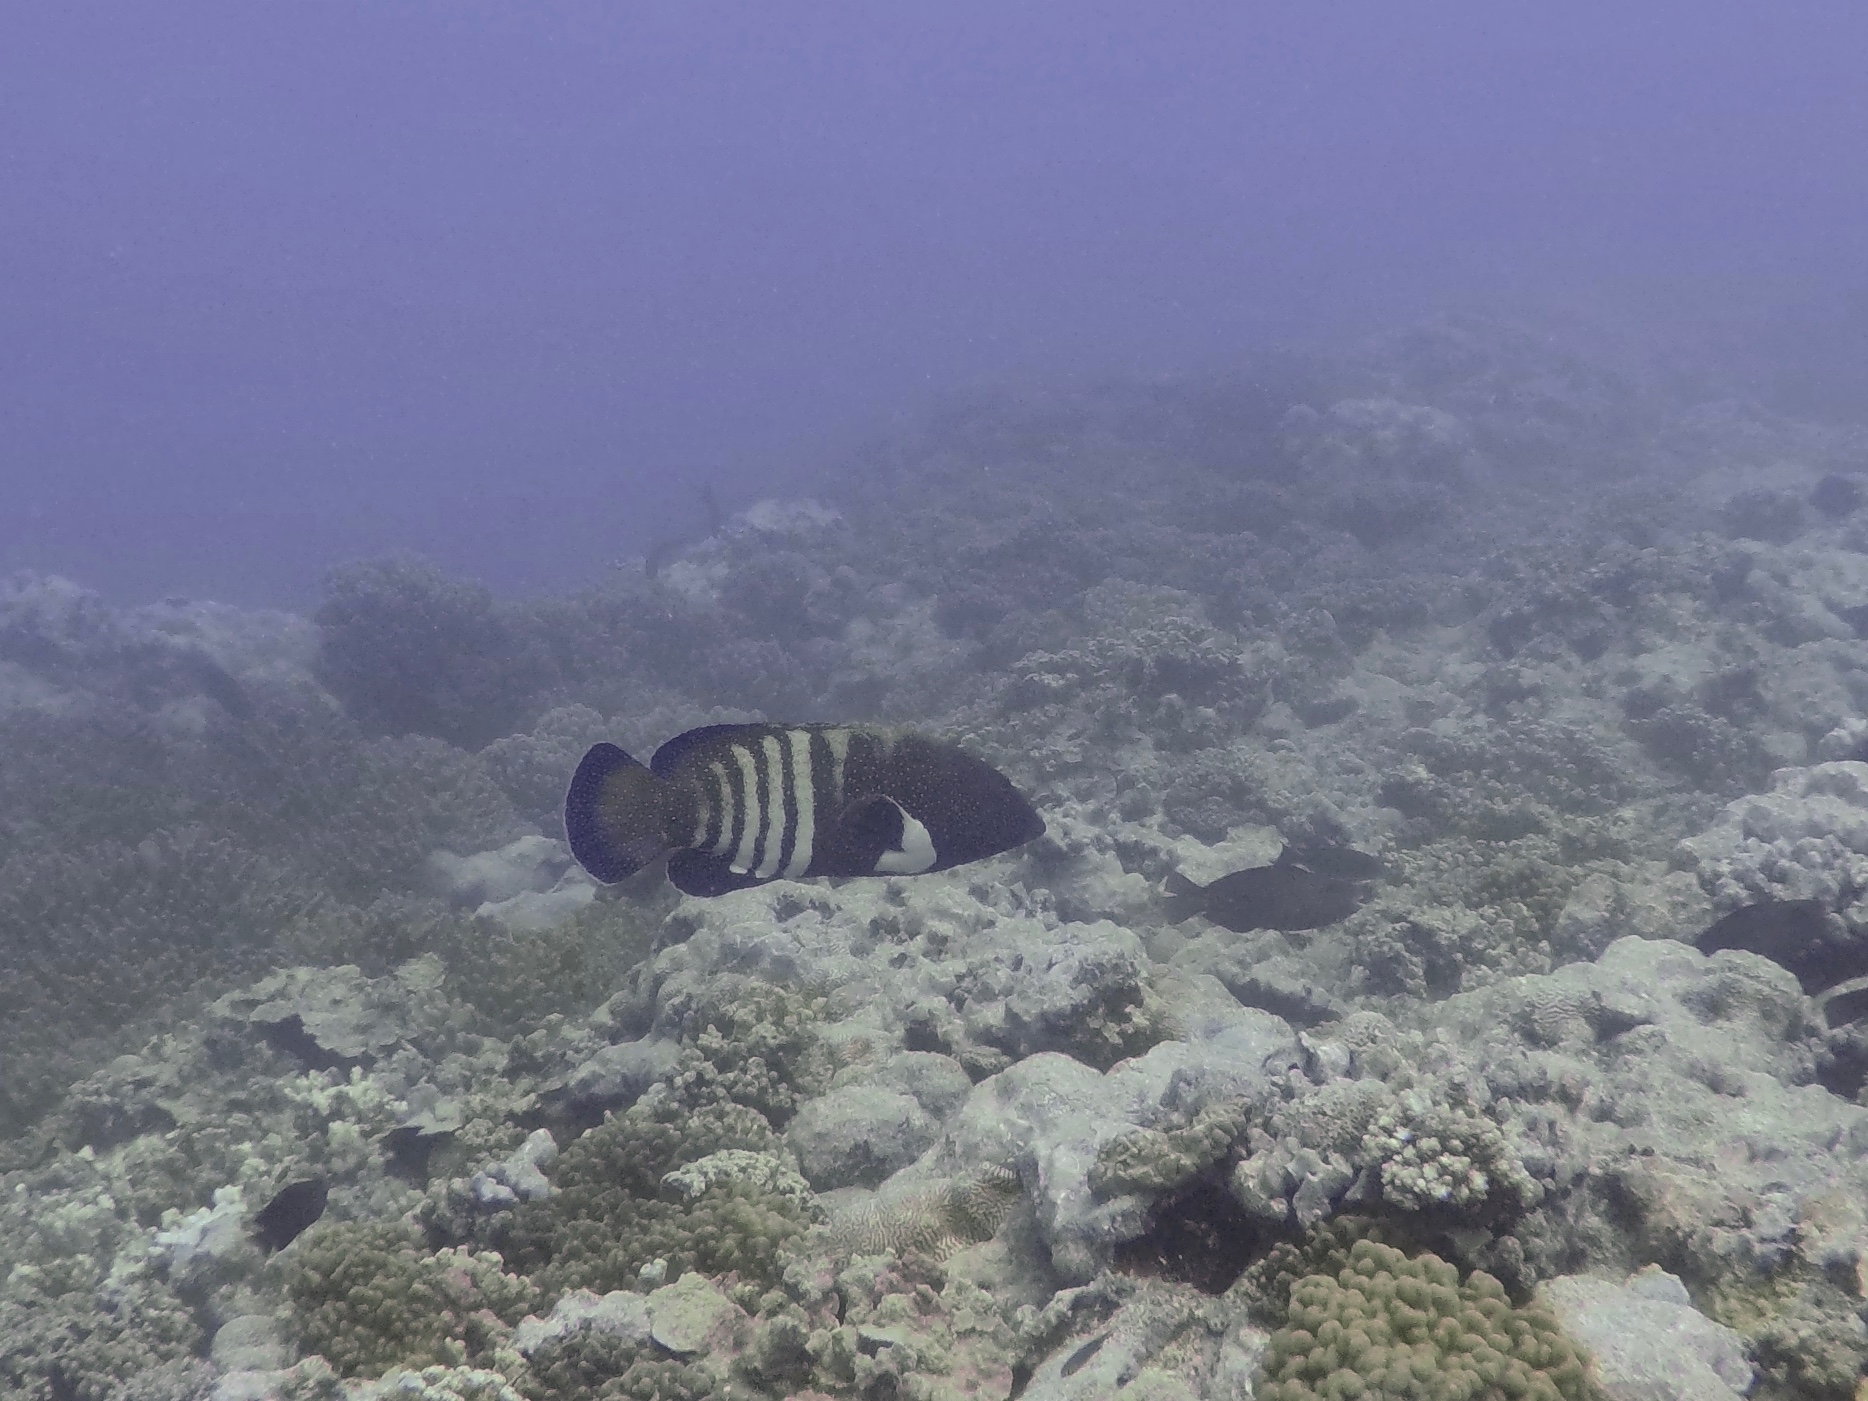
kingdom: Animalia
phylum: Chordata
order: Perciformes
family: Serranidae
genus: Cephalopholis
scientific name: Cephalopholis argus
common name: Peacock grouper
